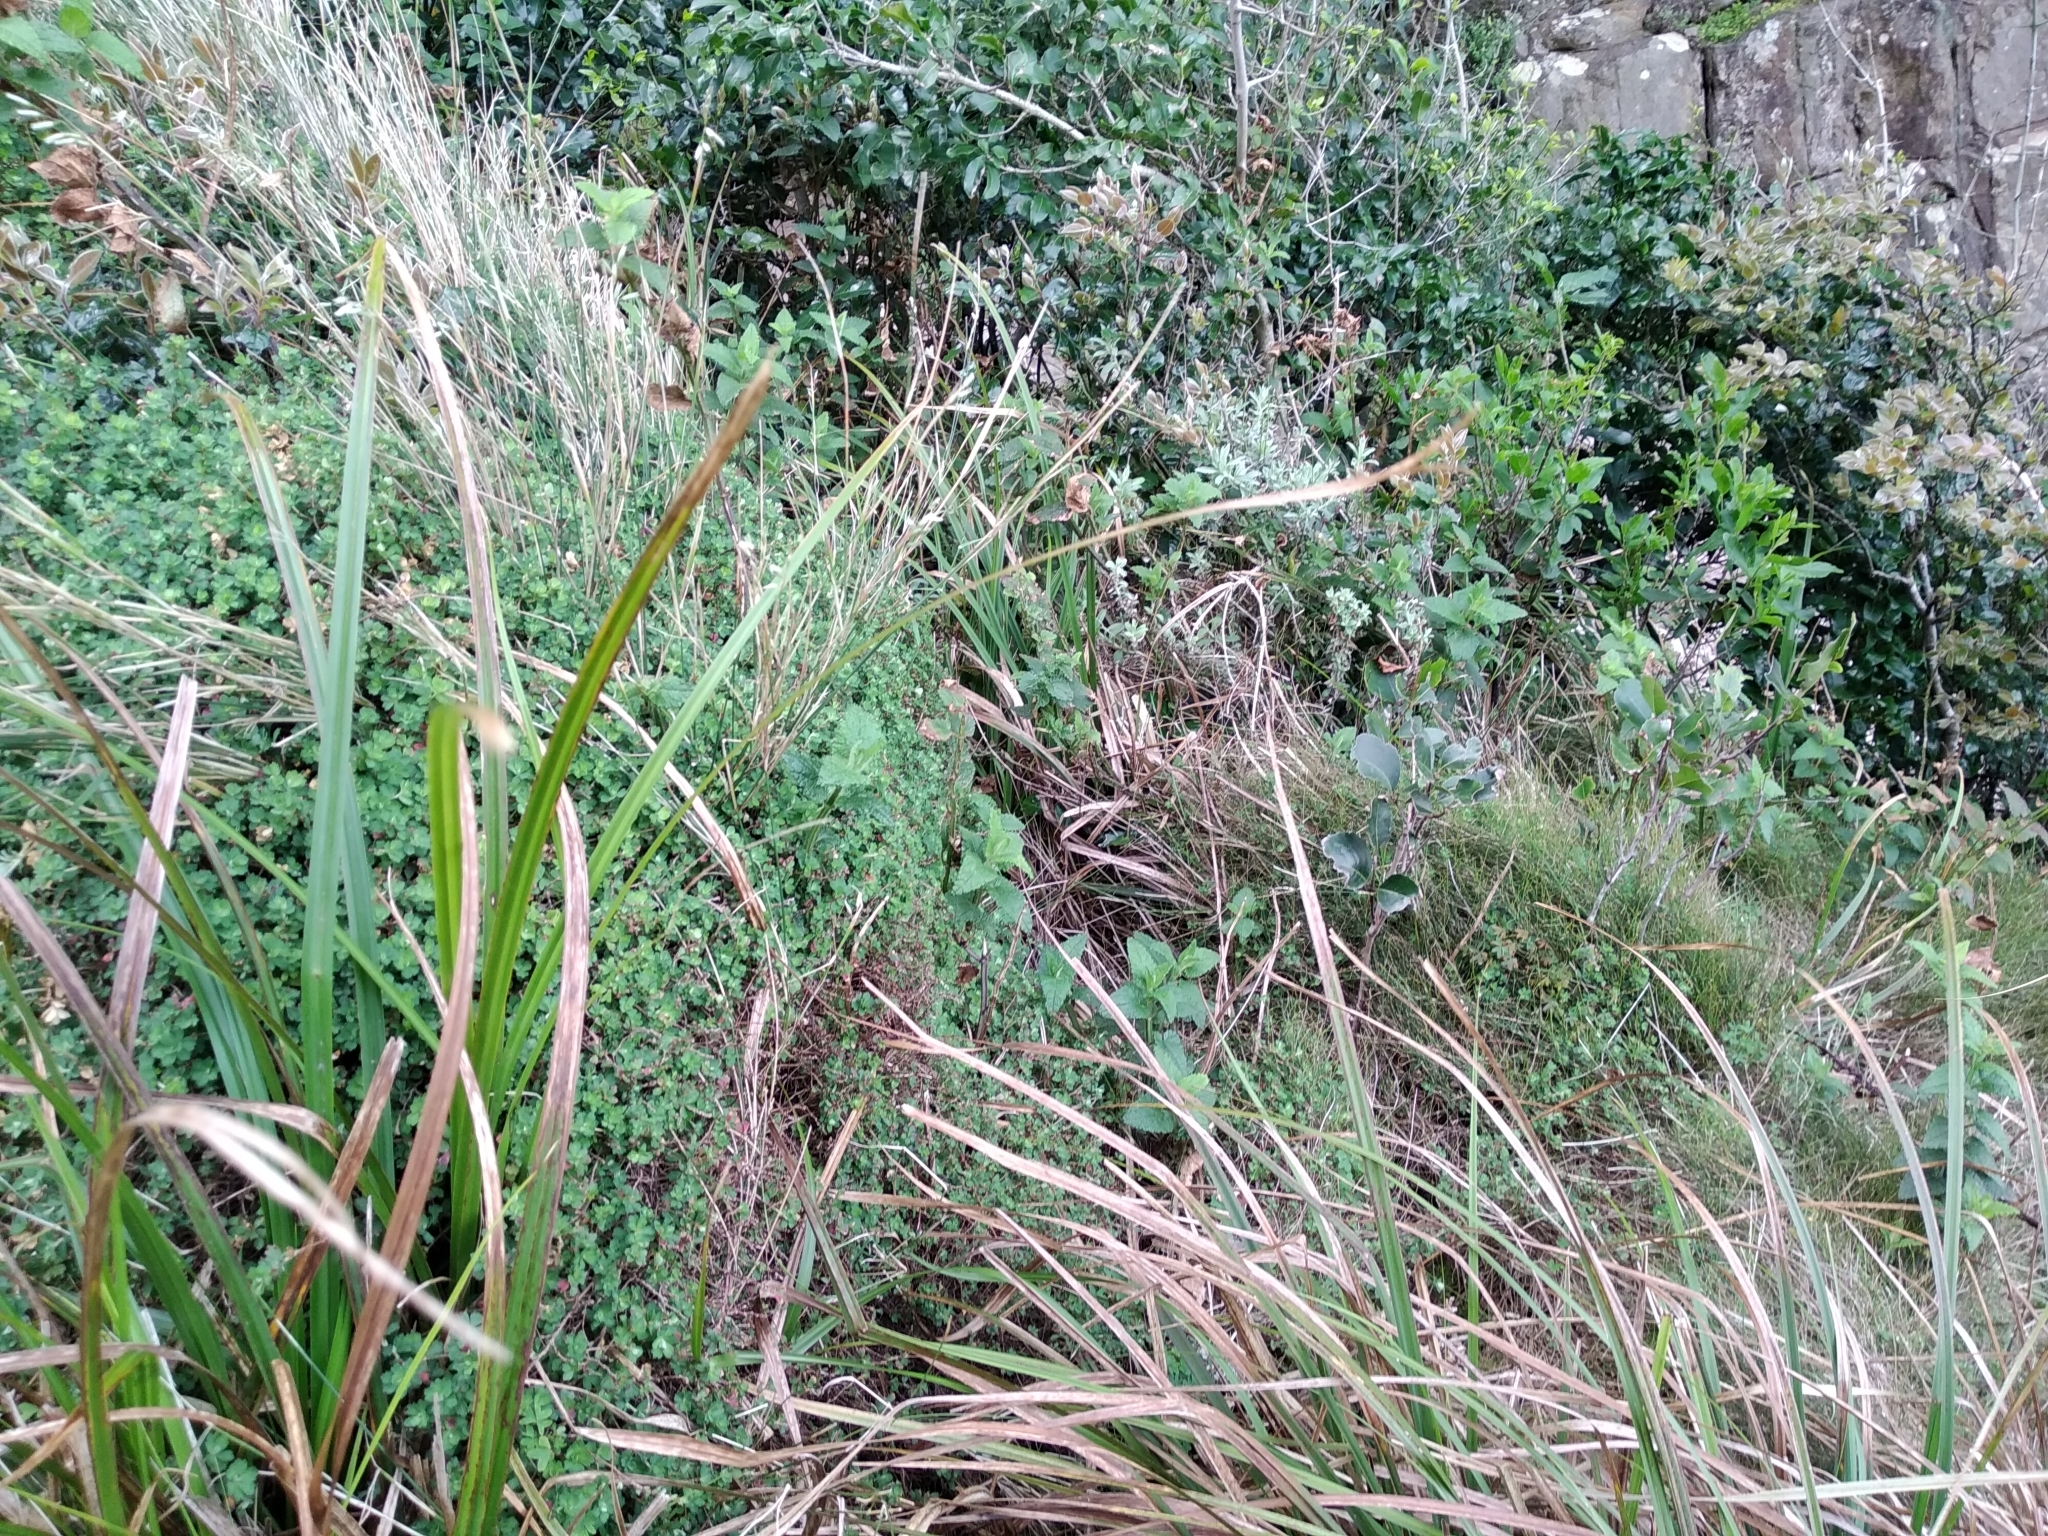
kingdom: Plantae
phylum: Tracheophyta
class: Magnoliopsida
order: Lamiales
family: Lamiaceae
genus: Stachys
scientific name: Stachys thunbergii
